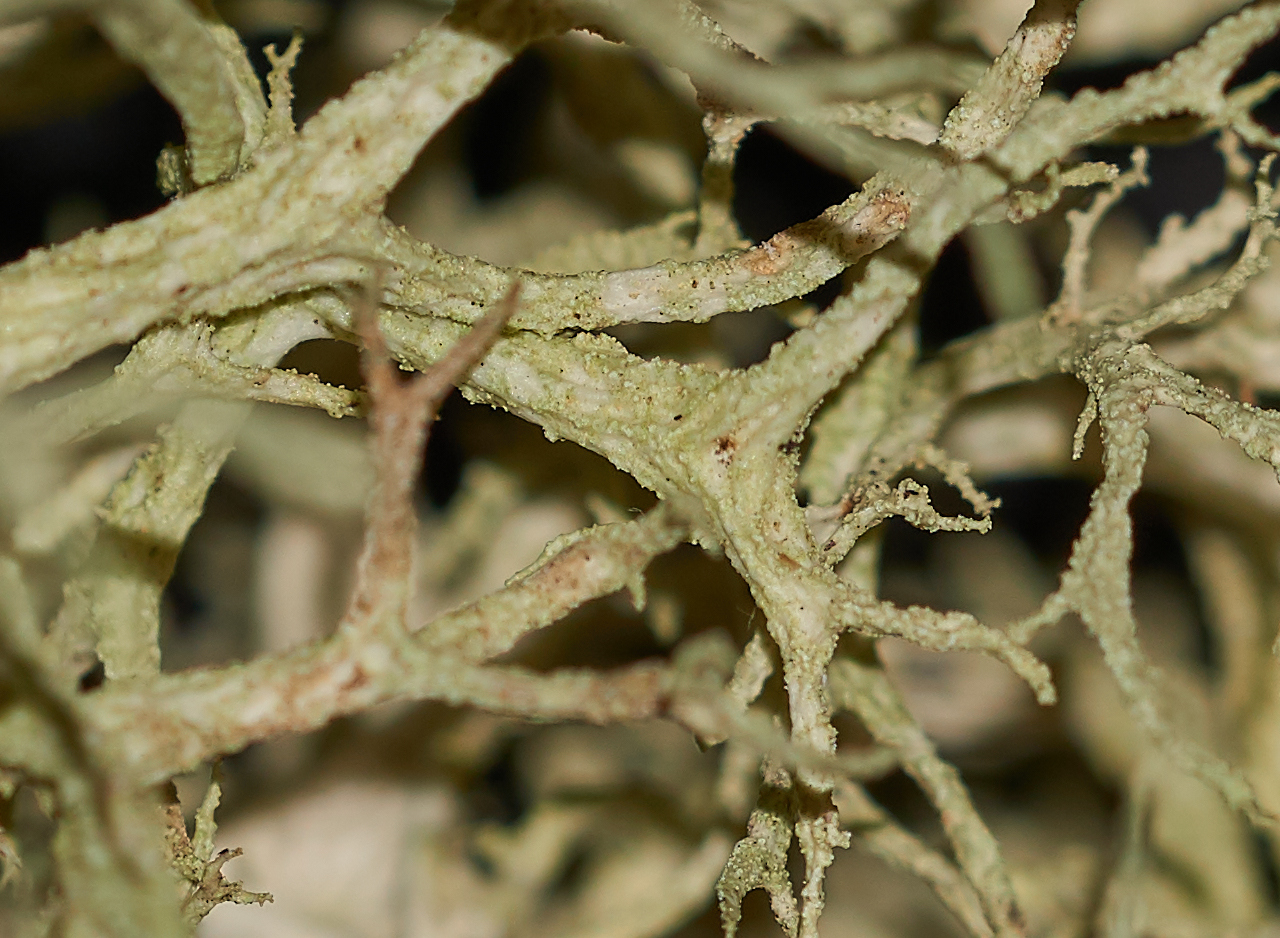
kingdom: Fungi
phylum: Ascomycota
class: Lecanoromycetes
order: Lecanorales
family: Parmeliaceae
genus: Evernia
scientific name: Evernia mesomorpha
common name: Boreal oak moss lichen
